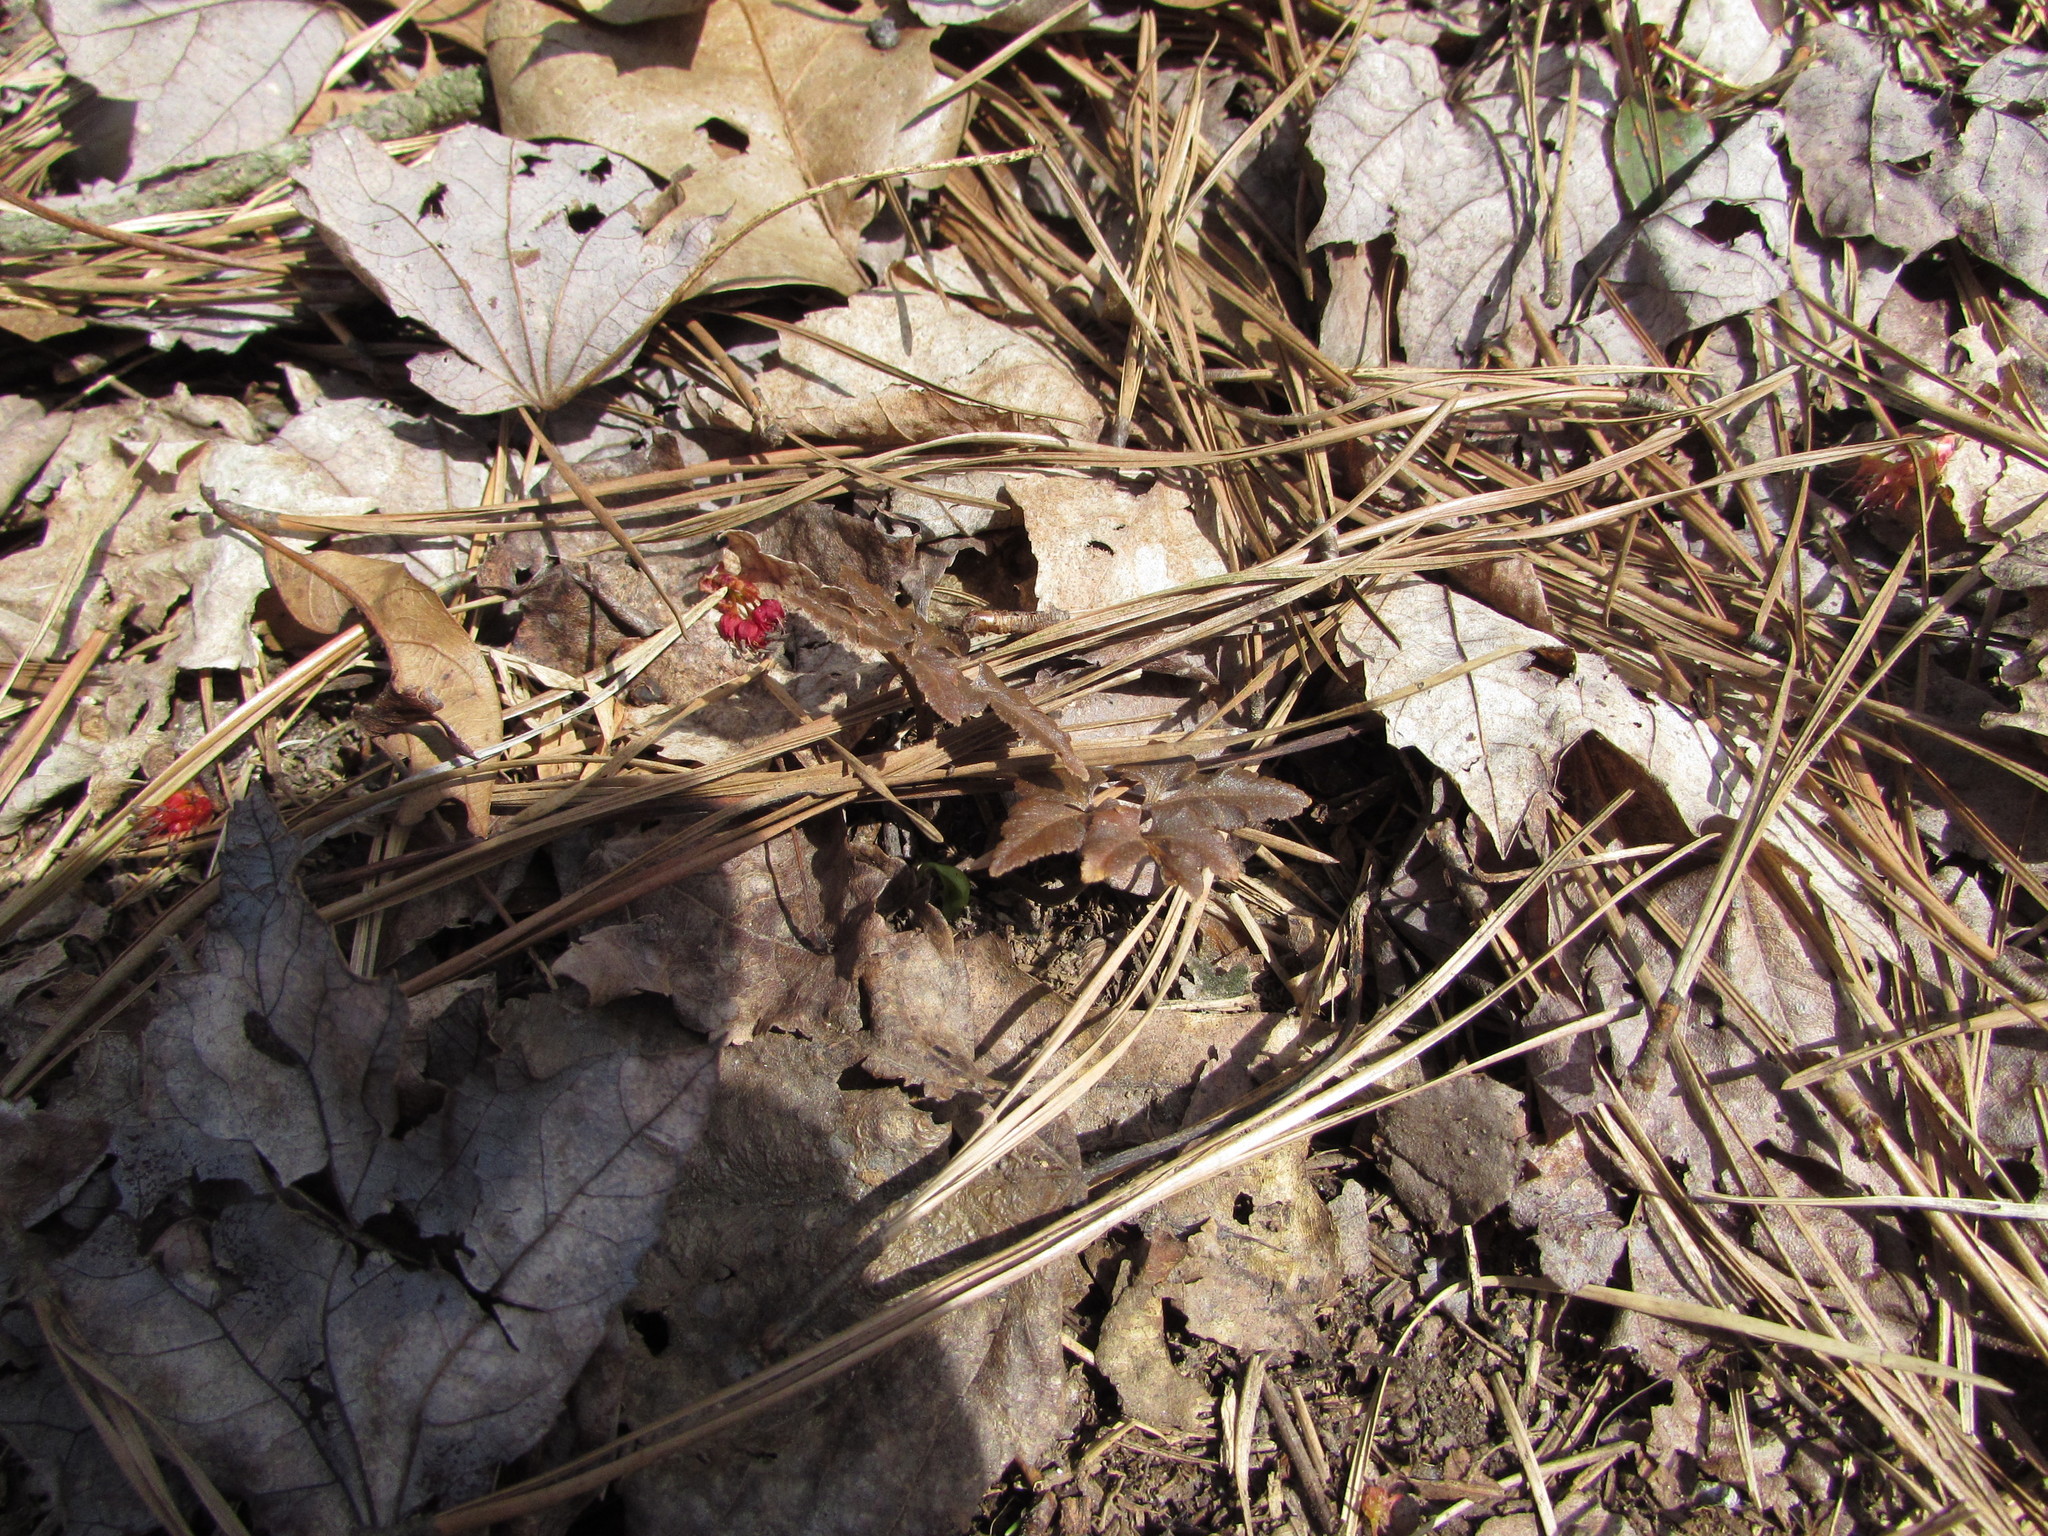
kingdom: Plantae
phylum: Tracheophyta
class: Polypodiopsida
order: Ophioglossales
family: Ophioglossaceae
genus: Sceptridium
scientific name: Sceptridium dissectum
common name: Cut-leaved grapefern
